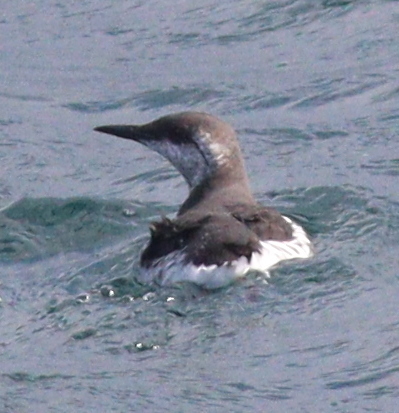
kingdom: Animalia
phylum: Chordata
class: Aves
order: Charadriiformes
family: Alcidae
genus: Uria
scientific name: Uria aalge
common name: Common murre
